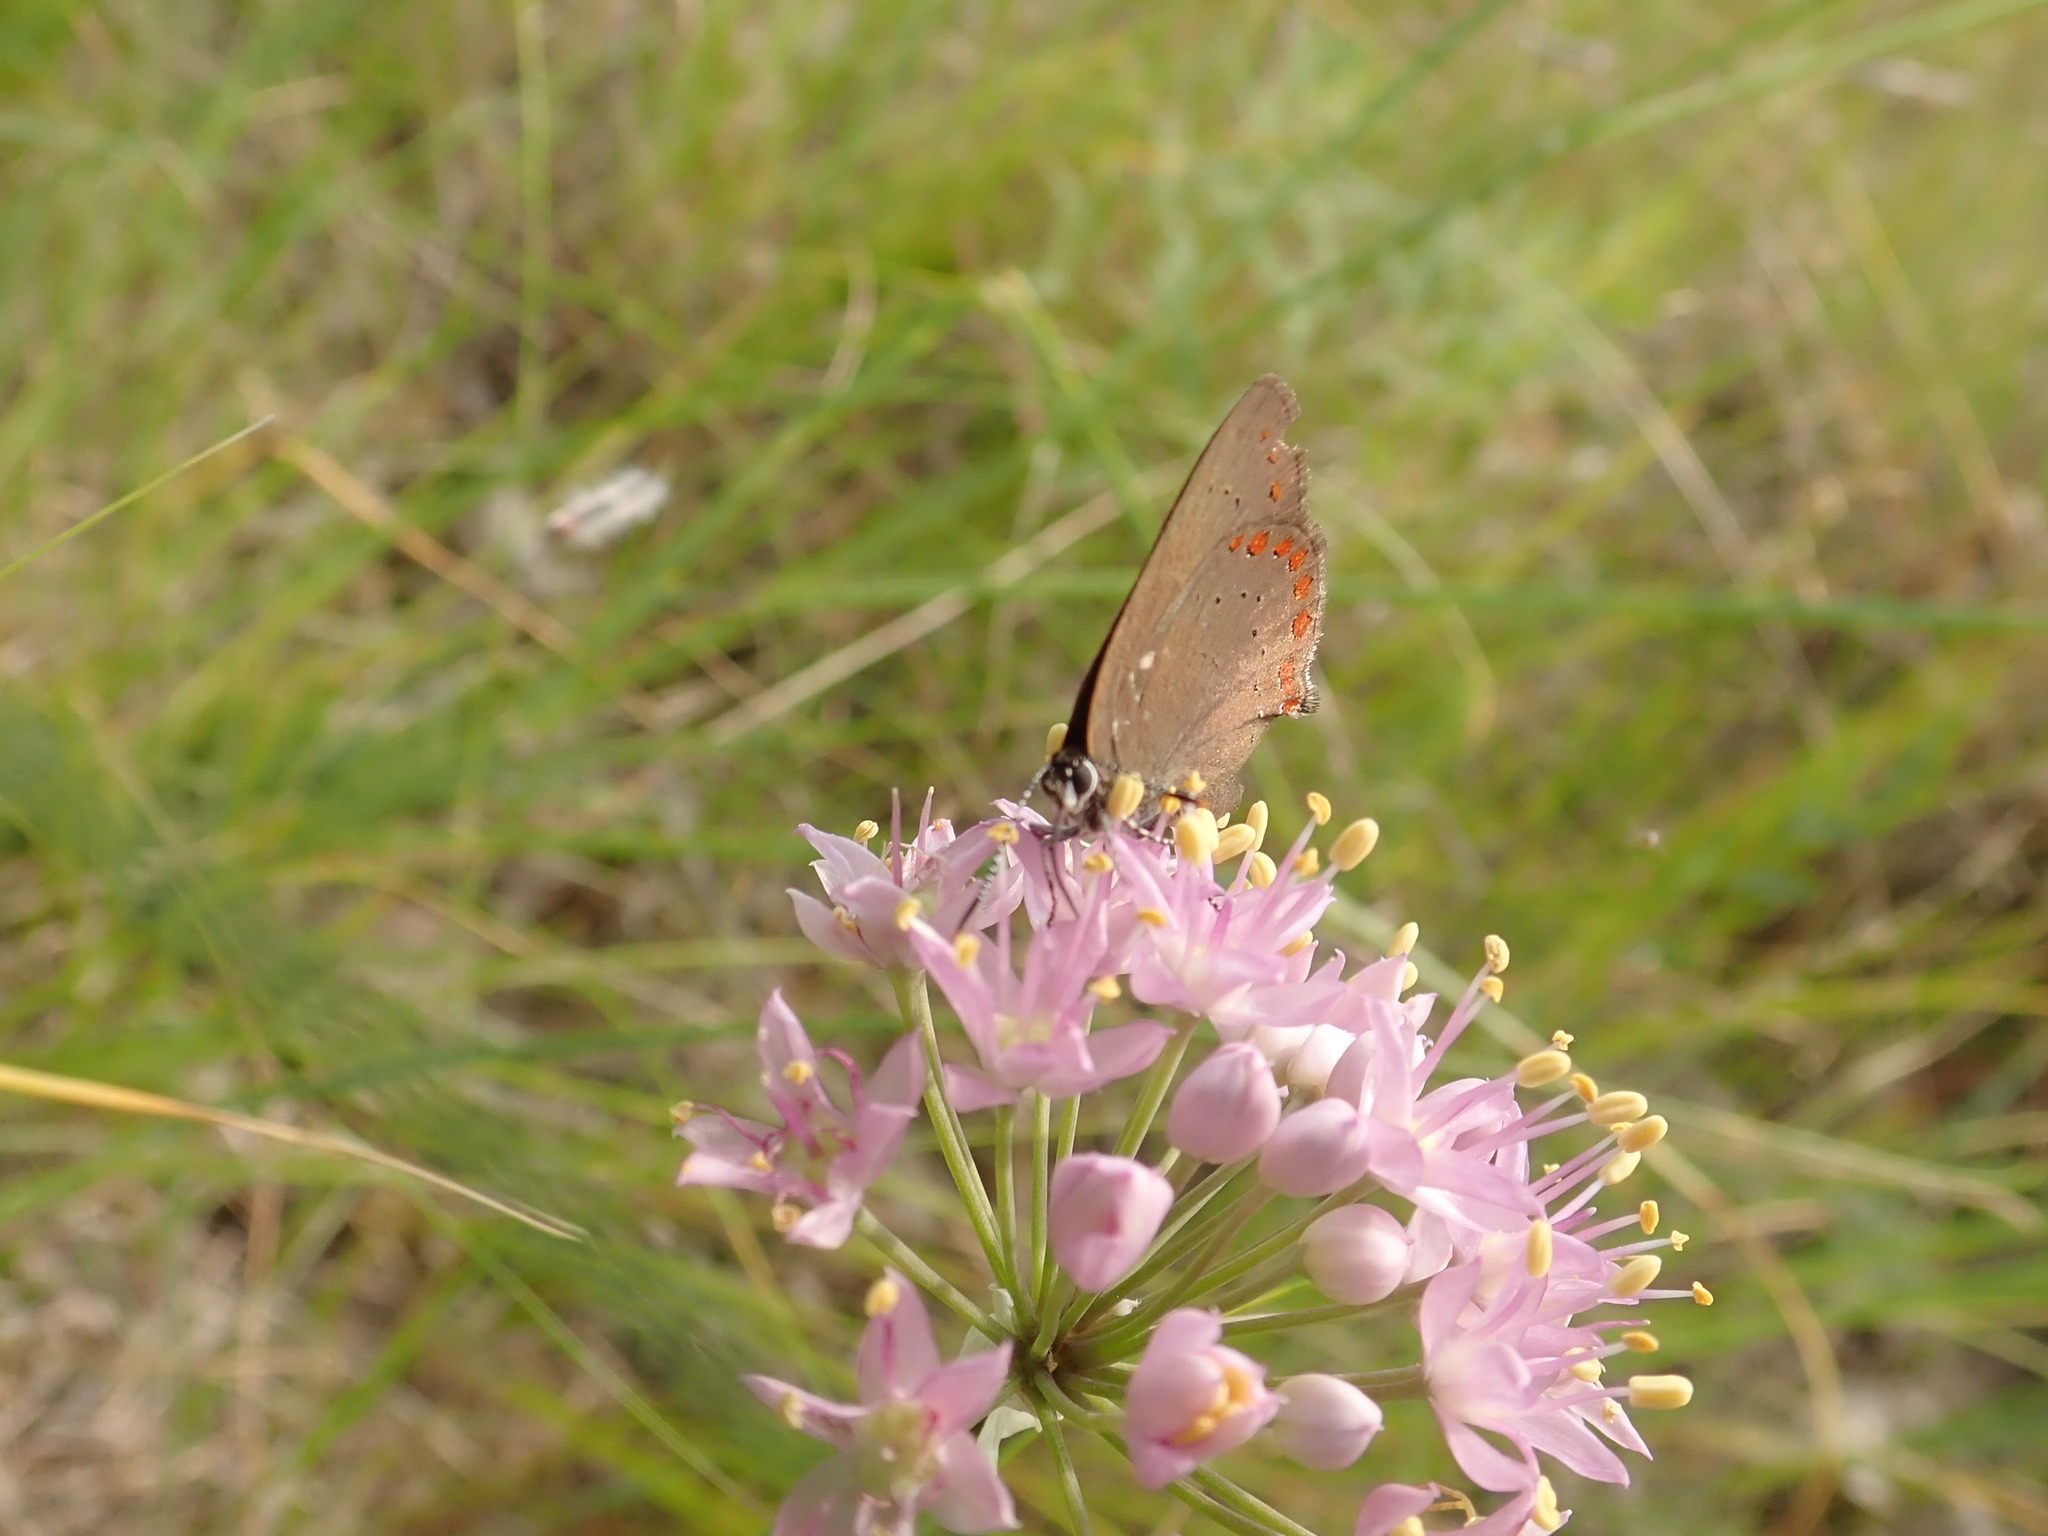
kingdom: Animalia
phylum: Arthropoda
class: Insecta
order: Lepidoptera
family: Lycaenidae
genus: Harkenclenus
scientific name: Harkenclenus titus
